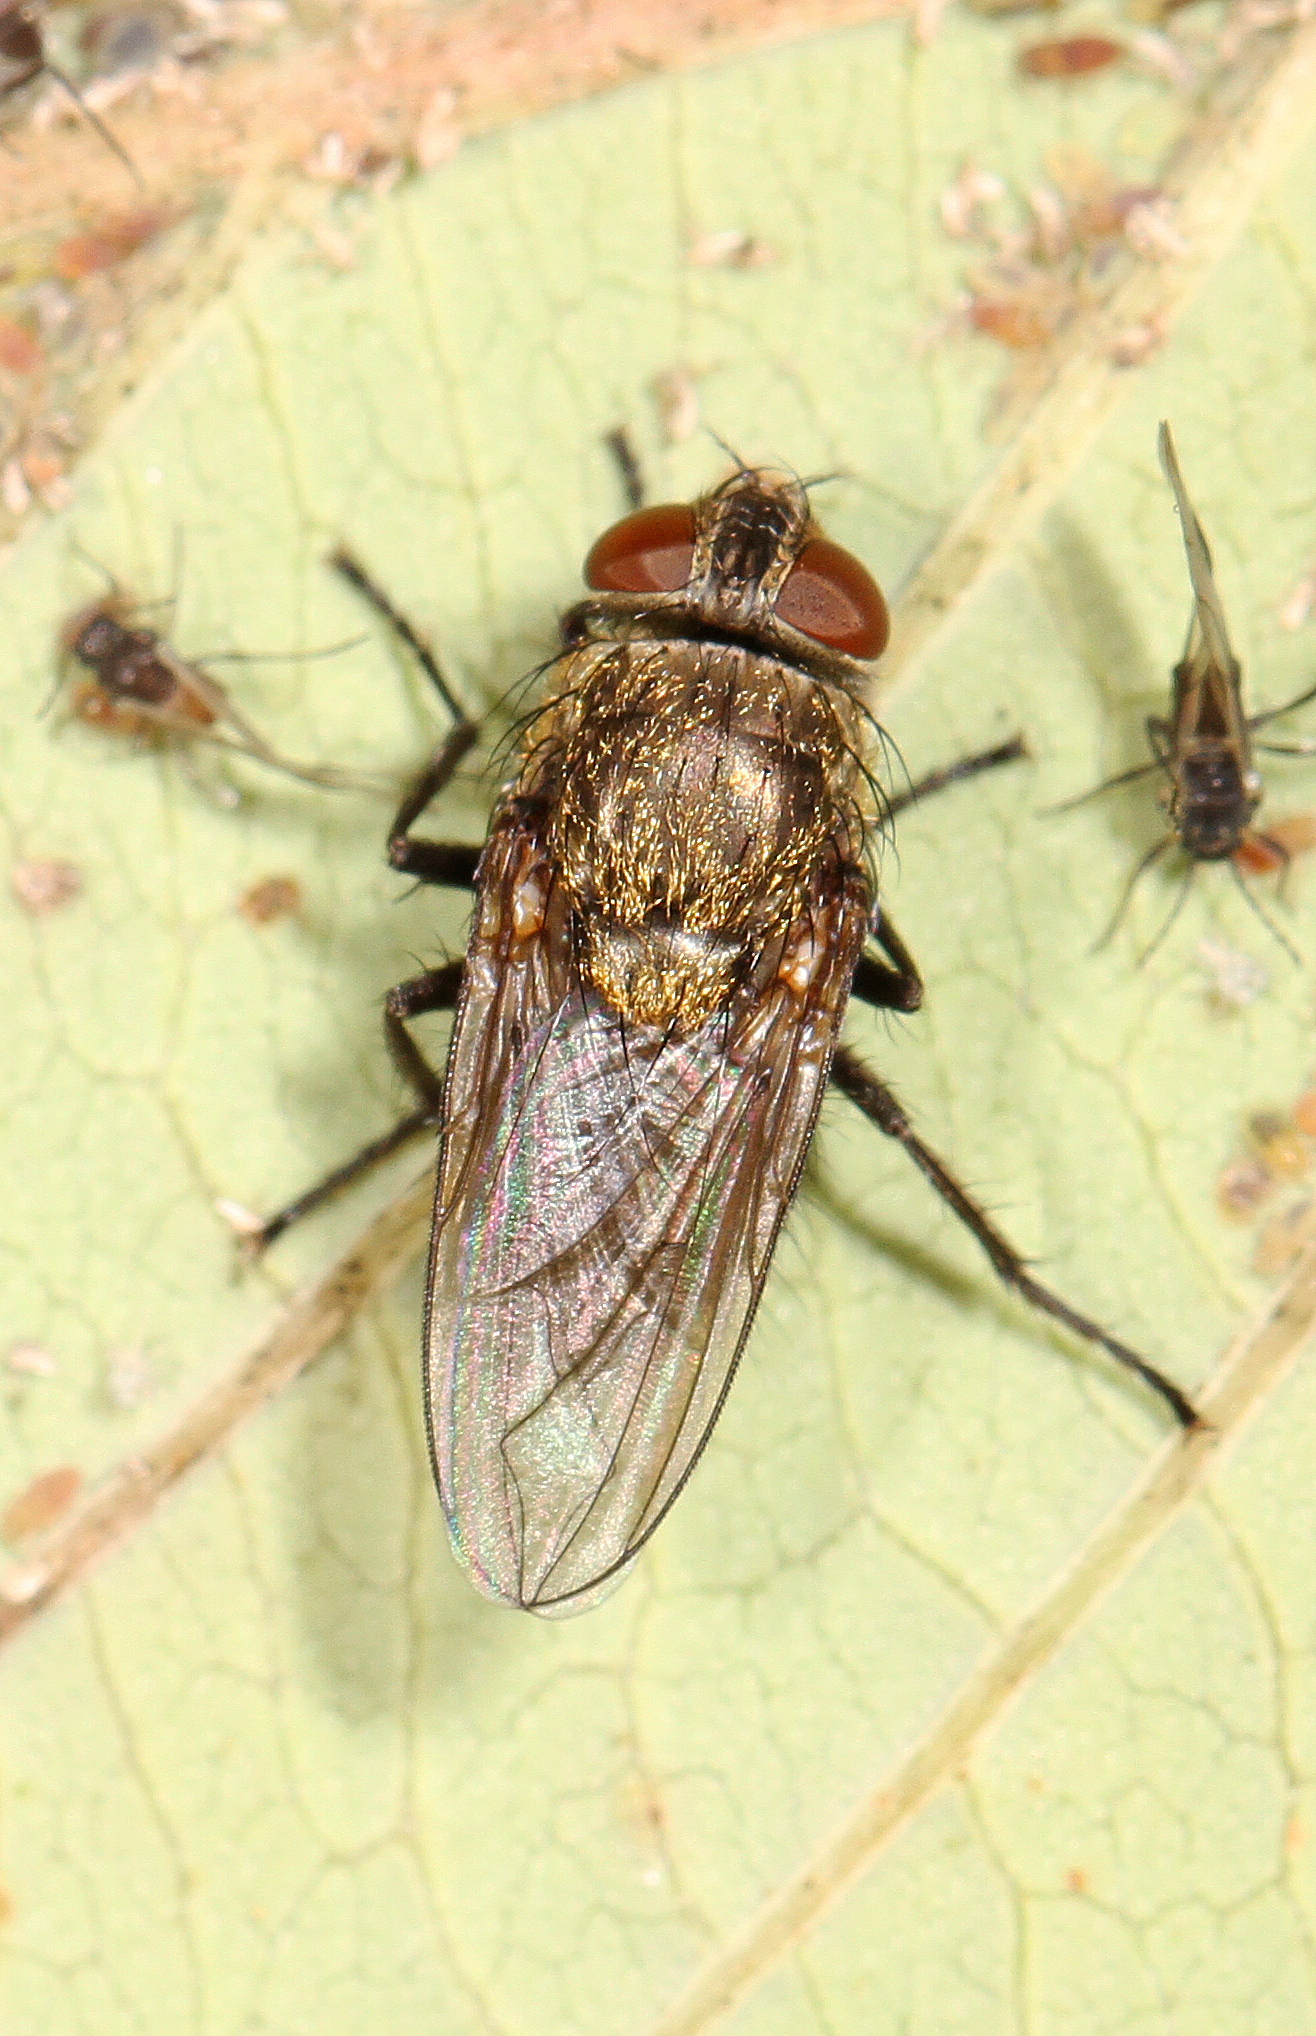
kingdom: Animalia
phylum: Arthropoda
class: Insecta
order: Diptera
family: Polleniidae
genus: Pollenia
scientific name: Pollenia
